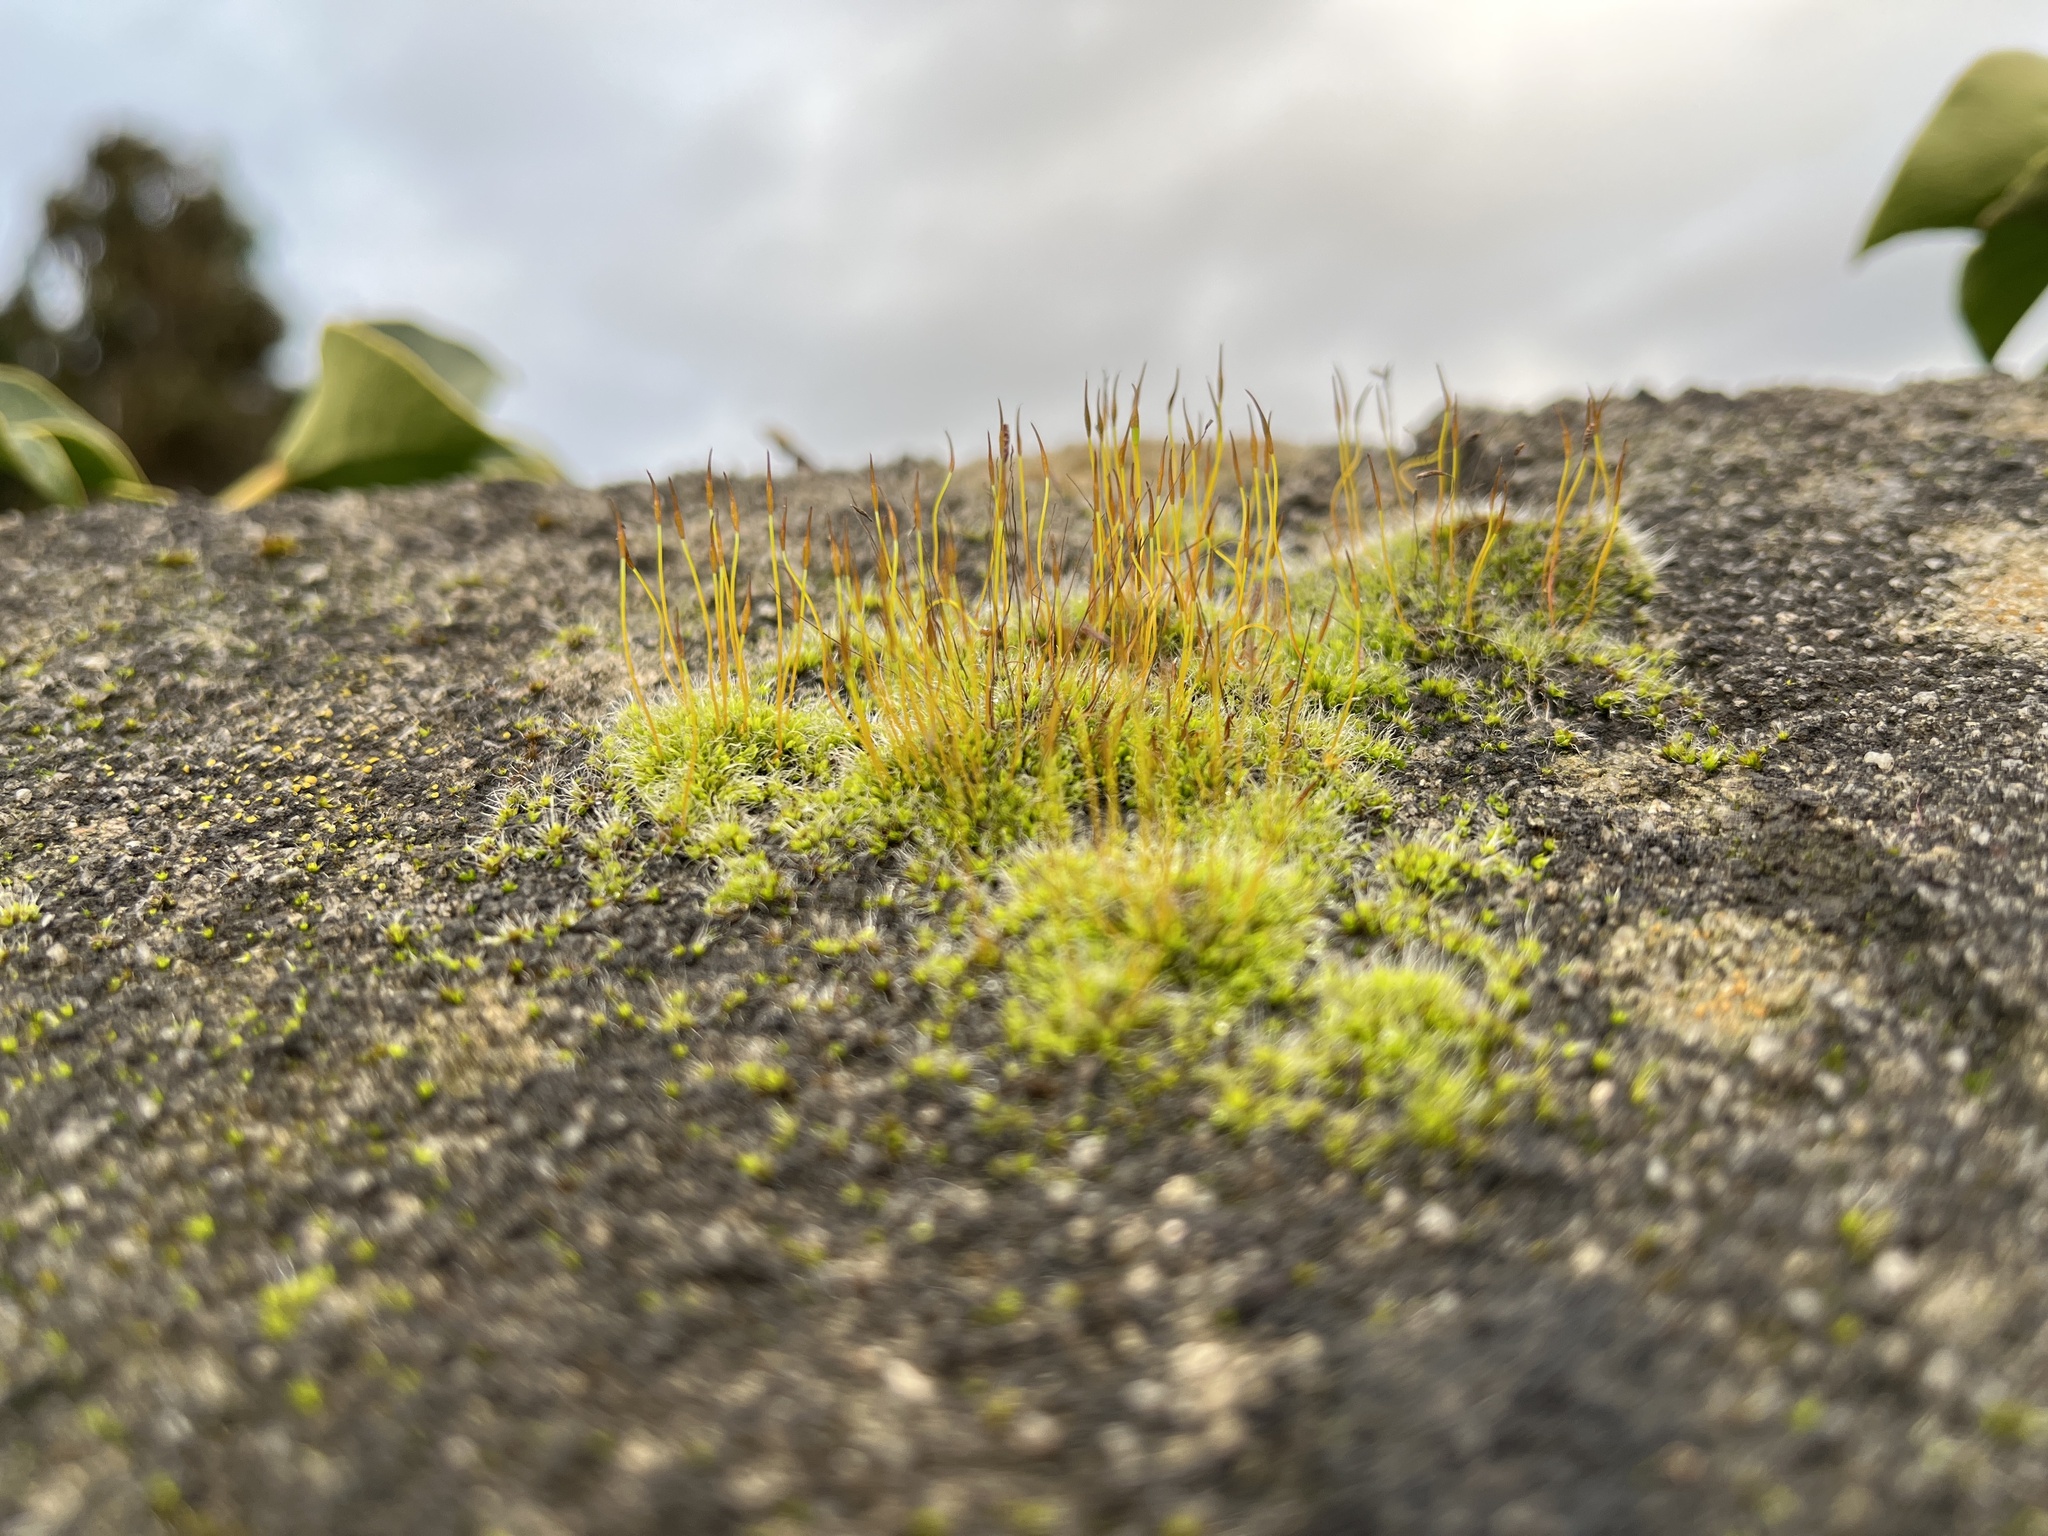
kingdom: Plantae
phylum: Bryophyta
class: Bryopsida
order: Pottiales
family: Pottiaceae
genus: Tortula
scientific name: Tortula muralis
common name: Wall screw-moss
